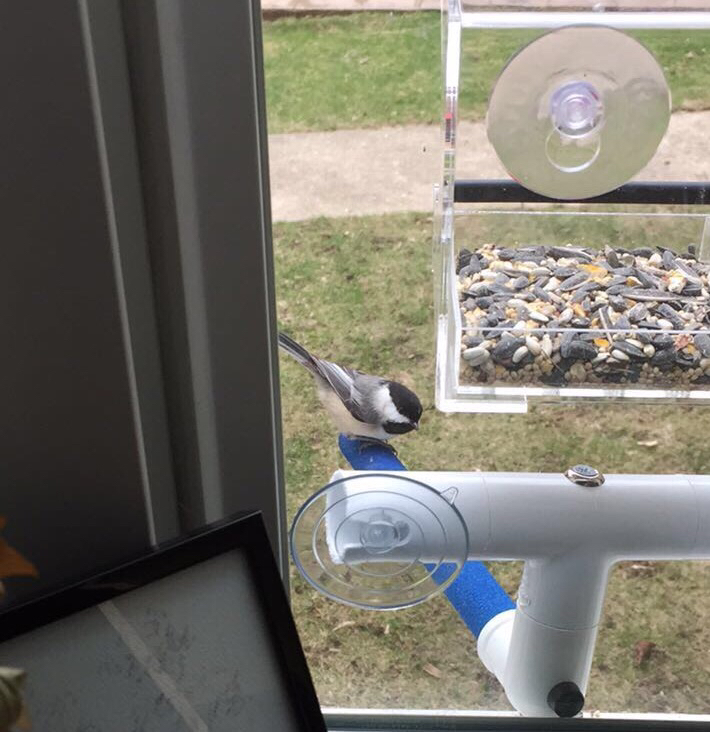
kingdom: Animalia
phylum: Chordata
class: Aves
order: Passeriformes
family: Paridae
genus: Poecile
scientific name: Poecile atricapillus
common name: Black-capped chickadee
